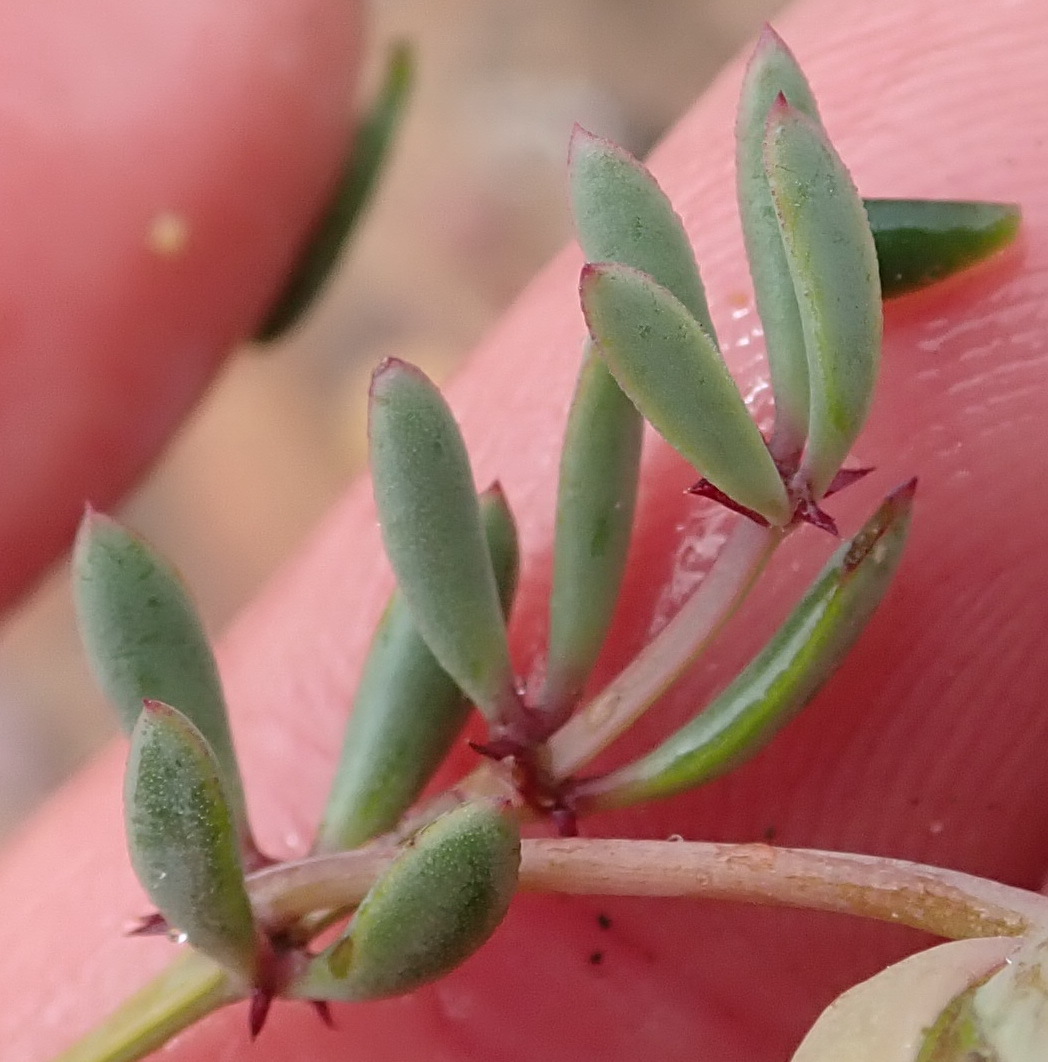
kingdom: Plantae
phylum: Tracheophyta
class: Magnoliopsida
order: Zygophyllales
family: Zygophyllaceae
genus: Roepera
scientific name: Roepera fulva
